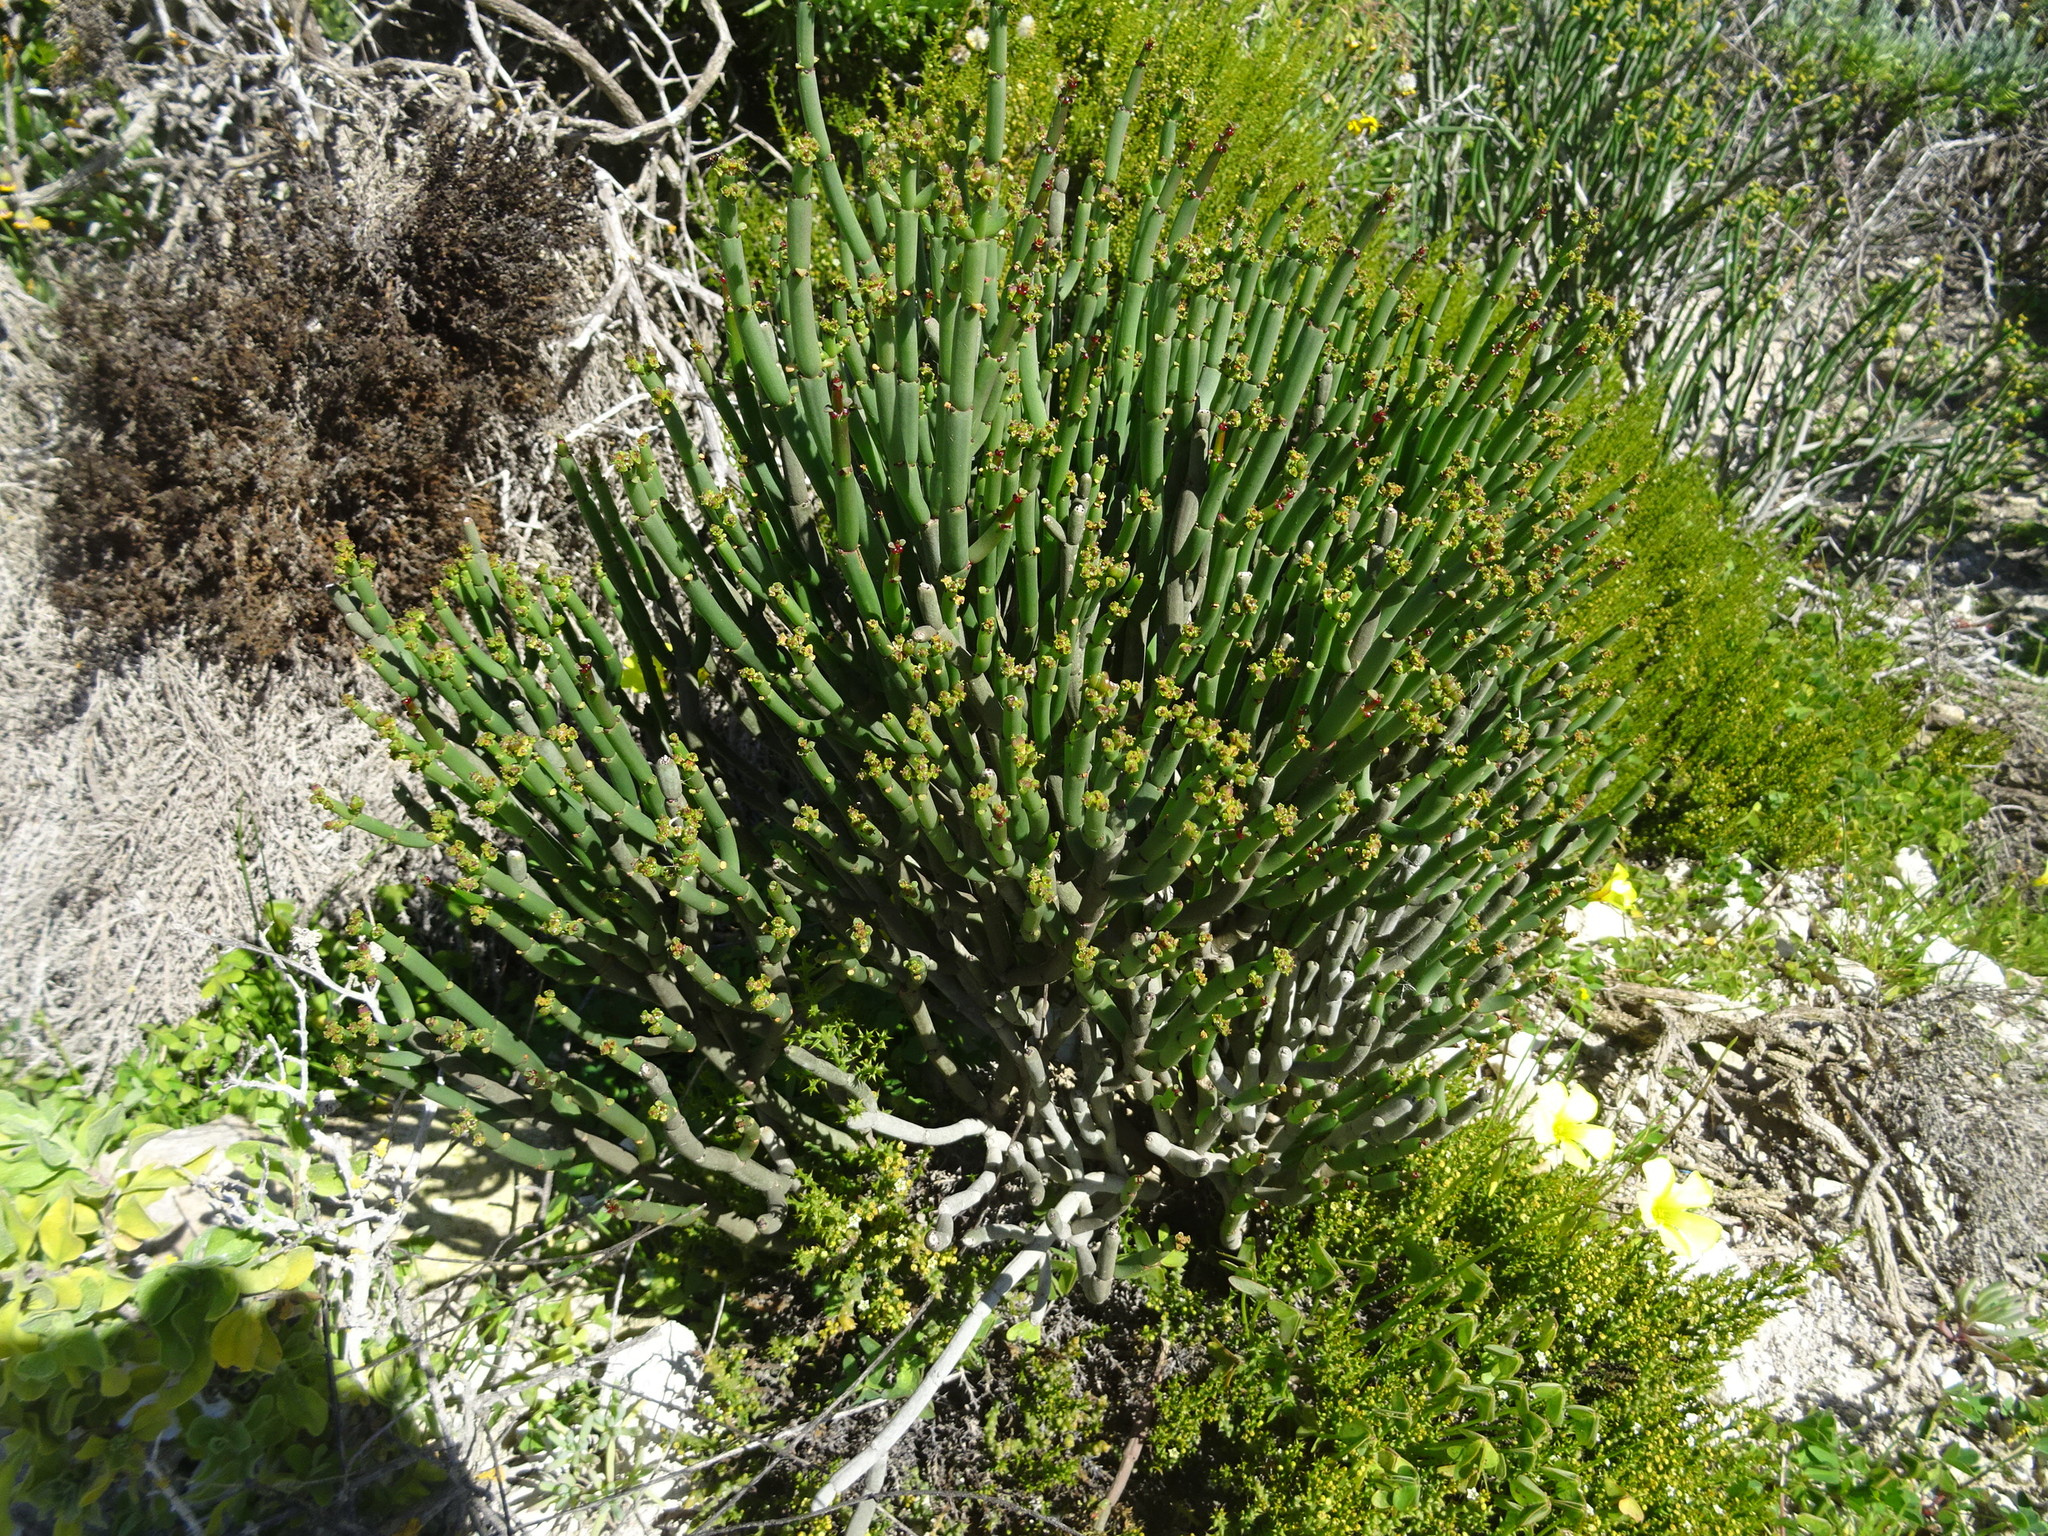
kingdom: Plantae
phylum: Tracheophyta
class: Magnoliopsida
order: Malpighiales
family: Euphorbiaceae
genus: Euphorbia
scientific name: Euphorbia mauritanica
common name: Jackal's-food
